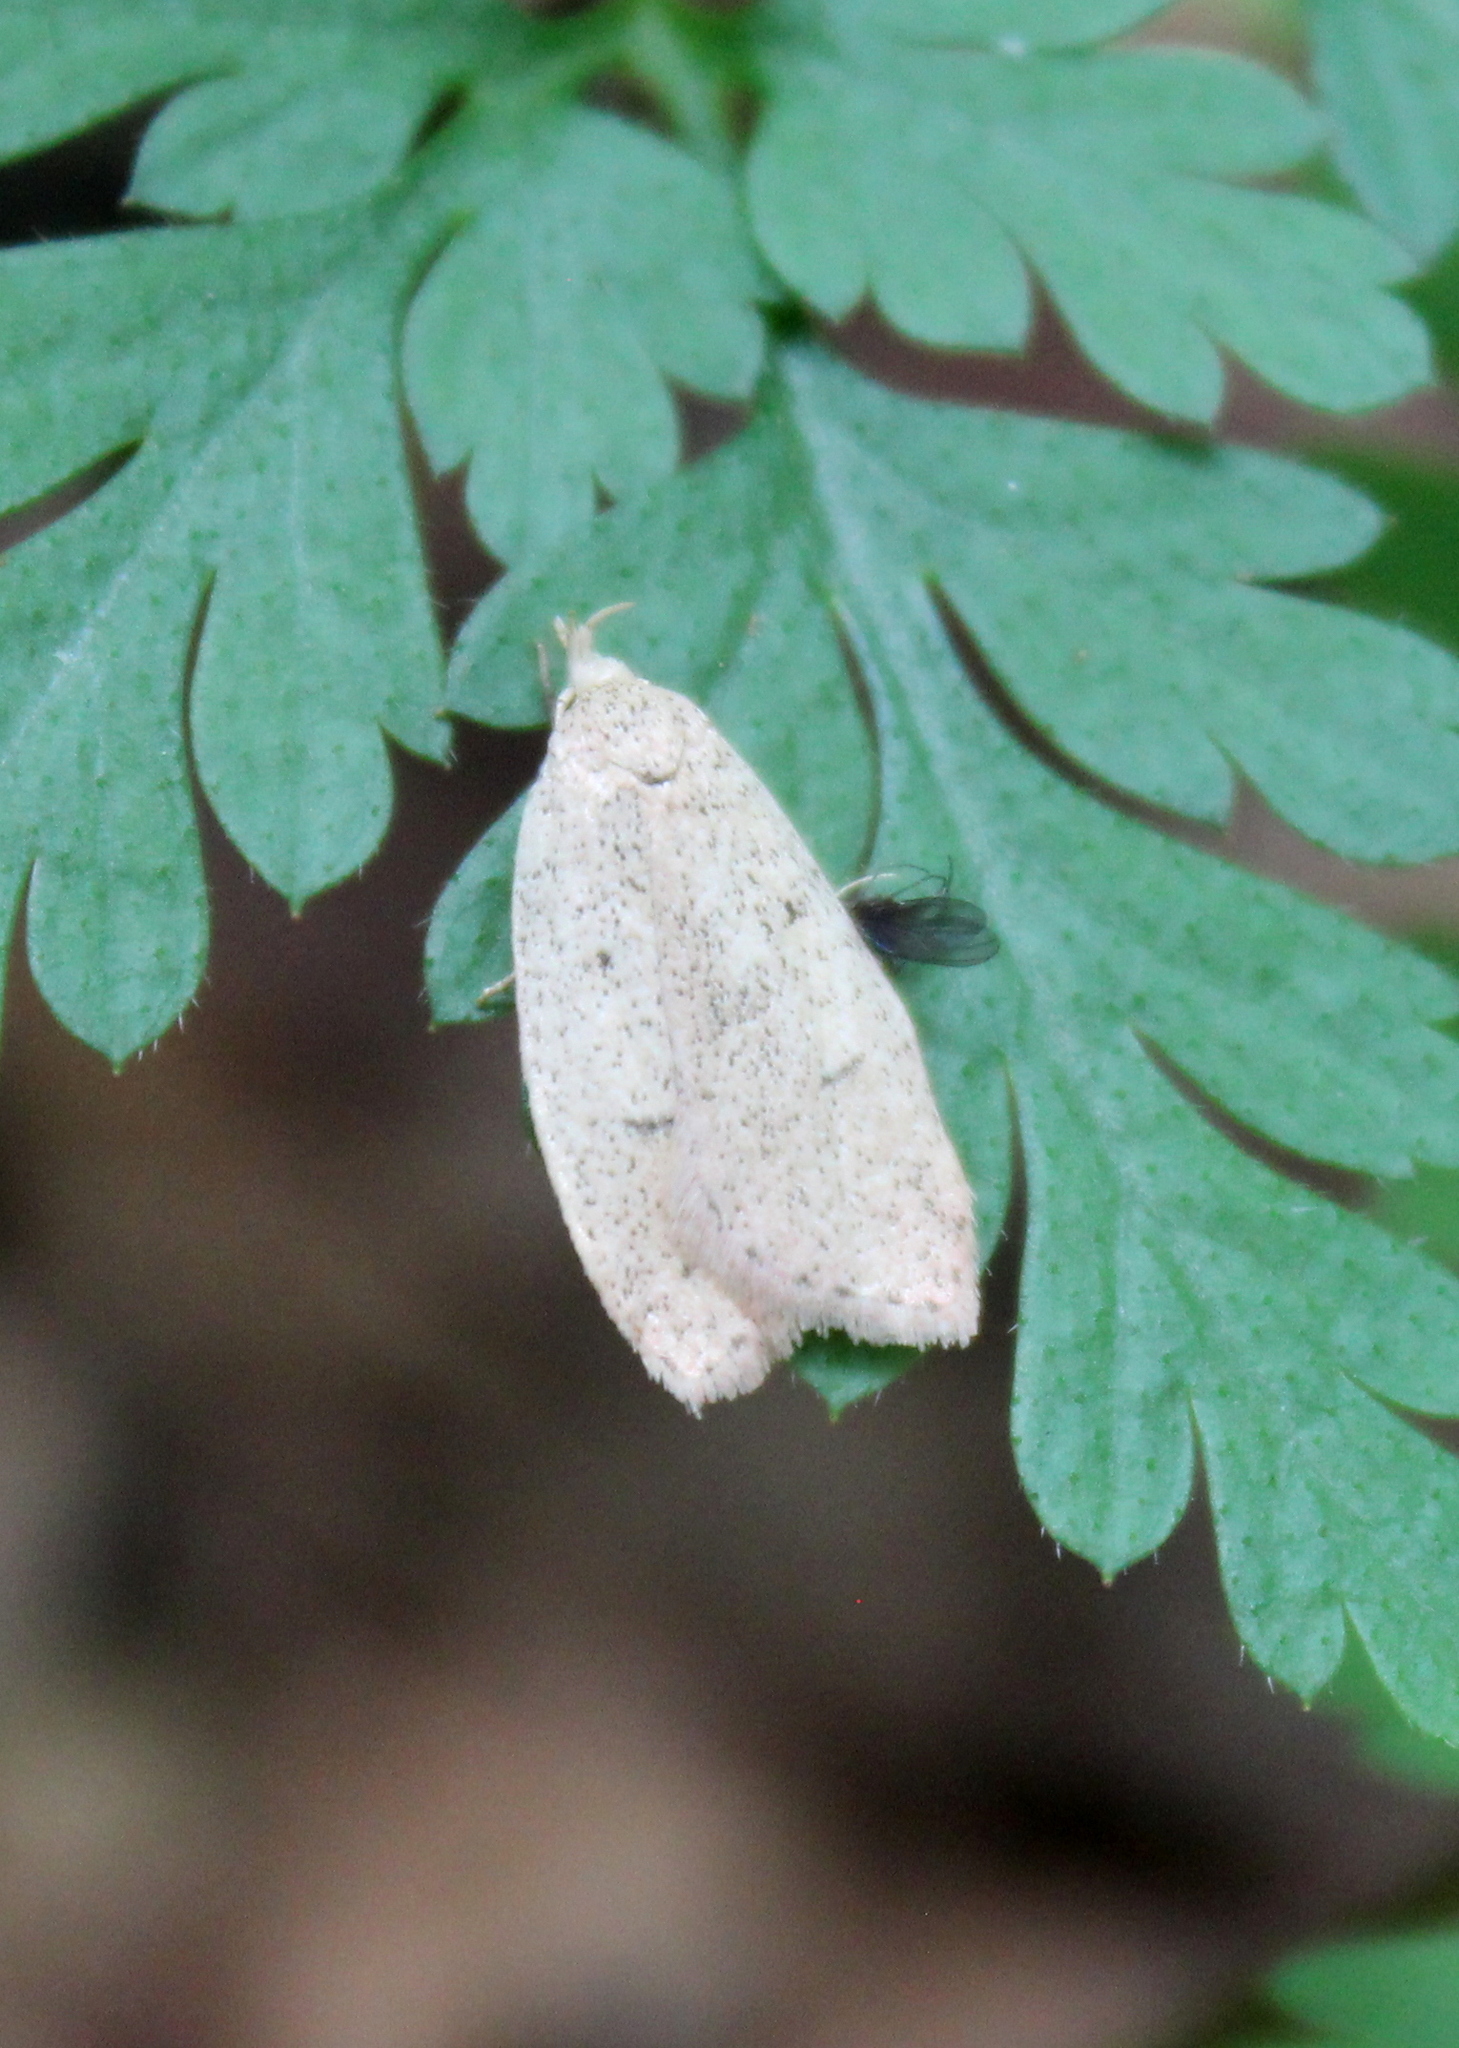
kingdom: Animalia
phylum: Arthropoda
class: Insecta
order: Lepidoptera
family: Peleopodidae
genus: Machimia
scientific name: Machimia tentoriferella
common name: Gold-striped leaftier moth
